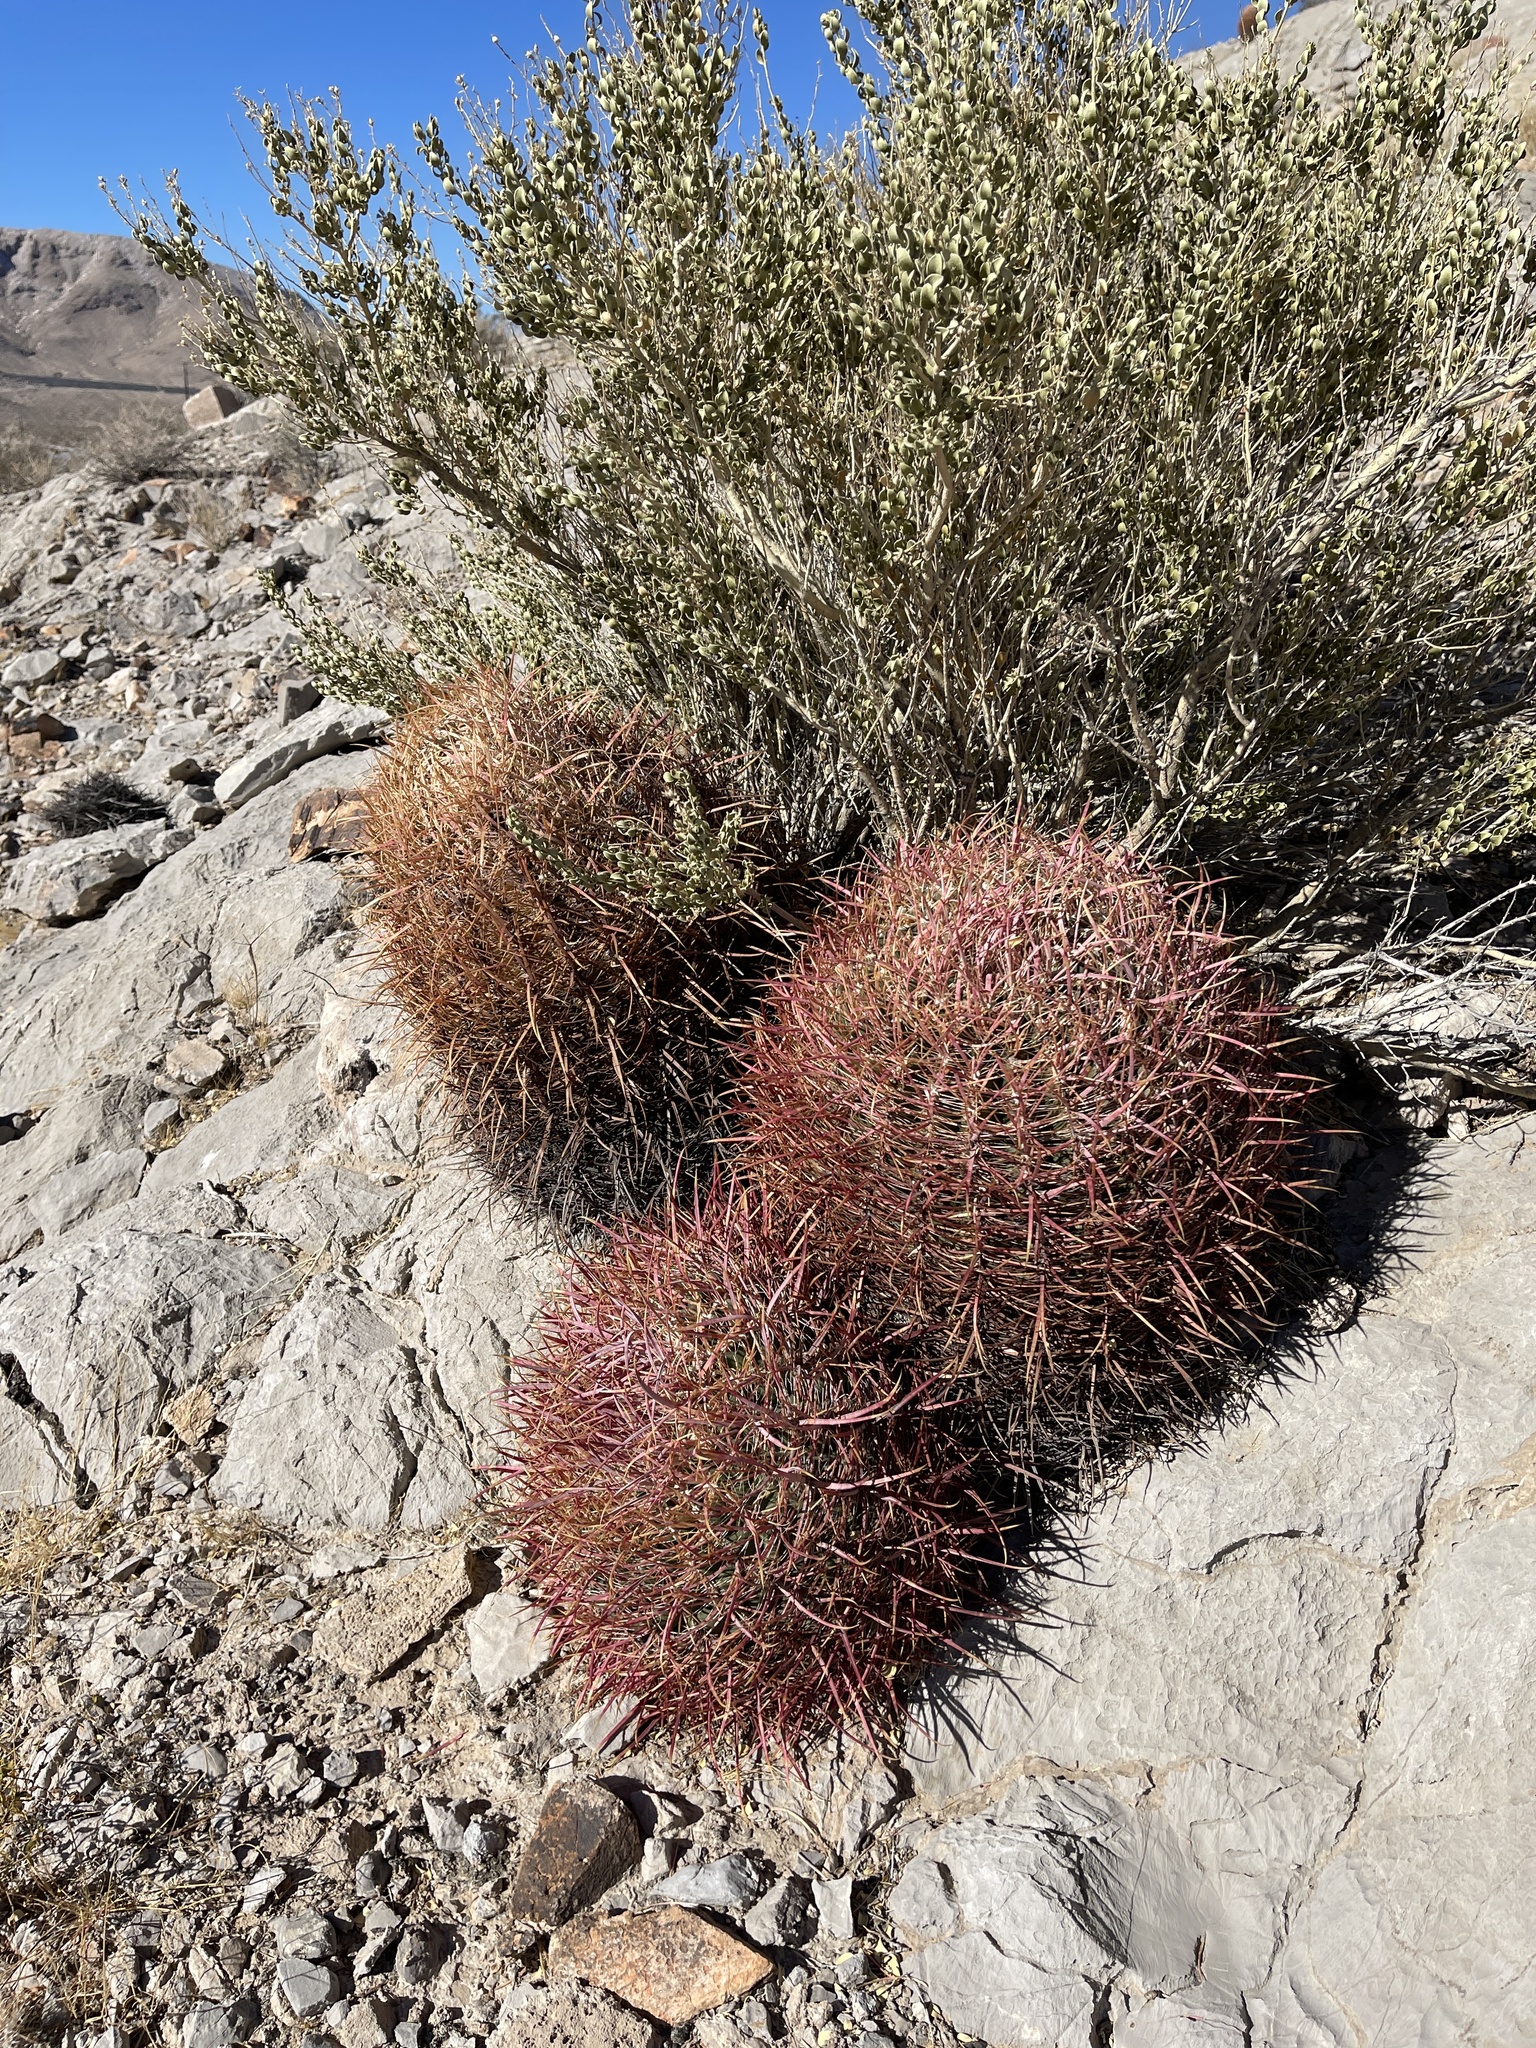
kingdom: Plantae
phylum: Tracheophyta
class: Magnoliopsida
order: Caryophyllales
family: Cactaceae
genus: Ferocactus
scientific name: Ferocactus cylindraceus
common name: California barrel cactus
